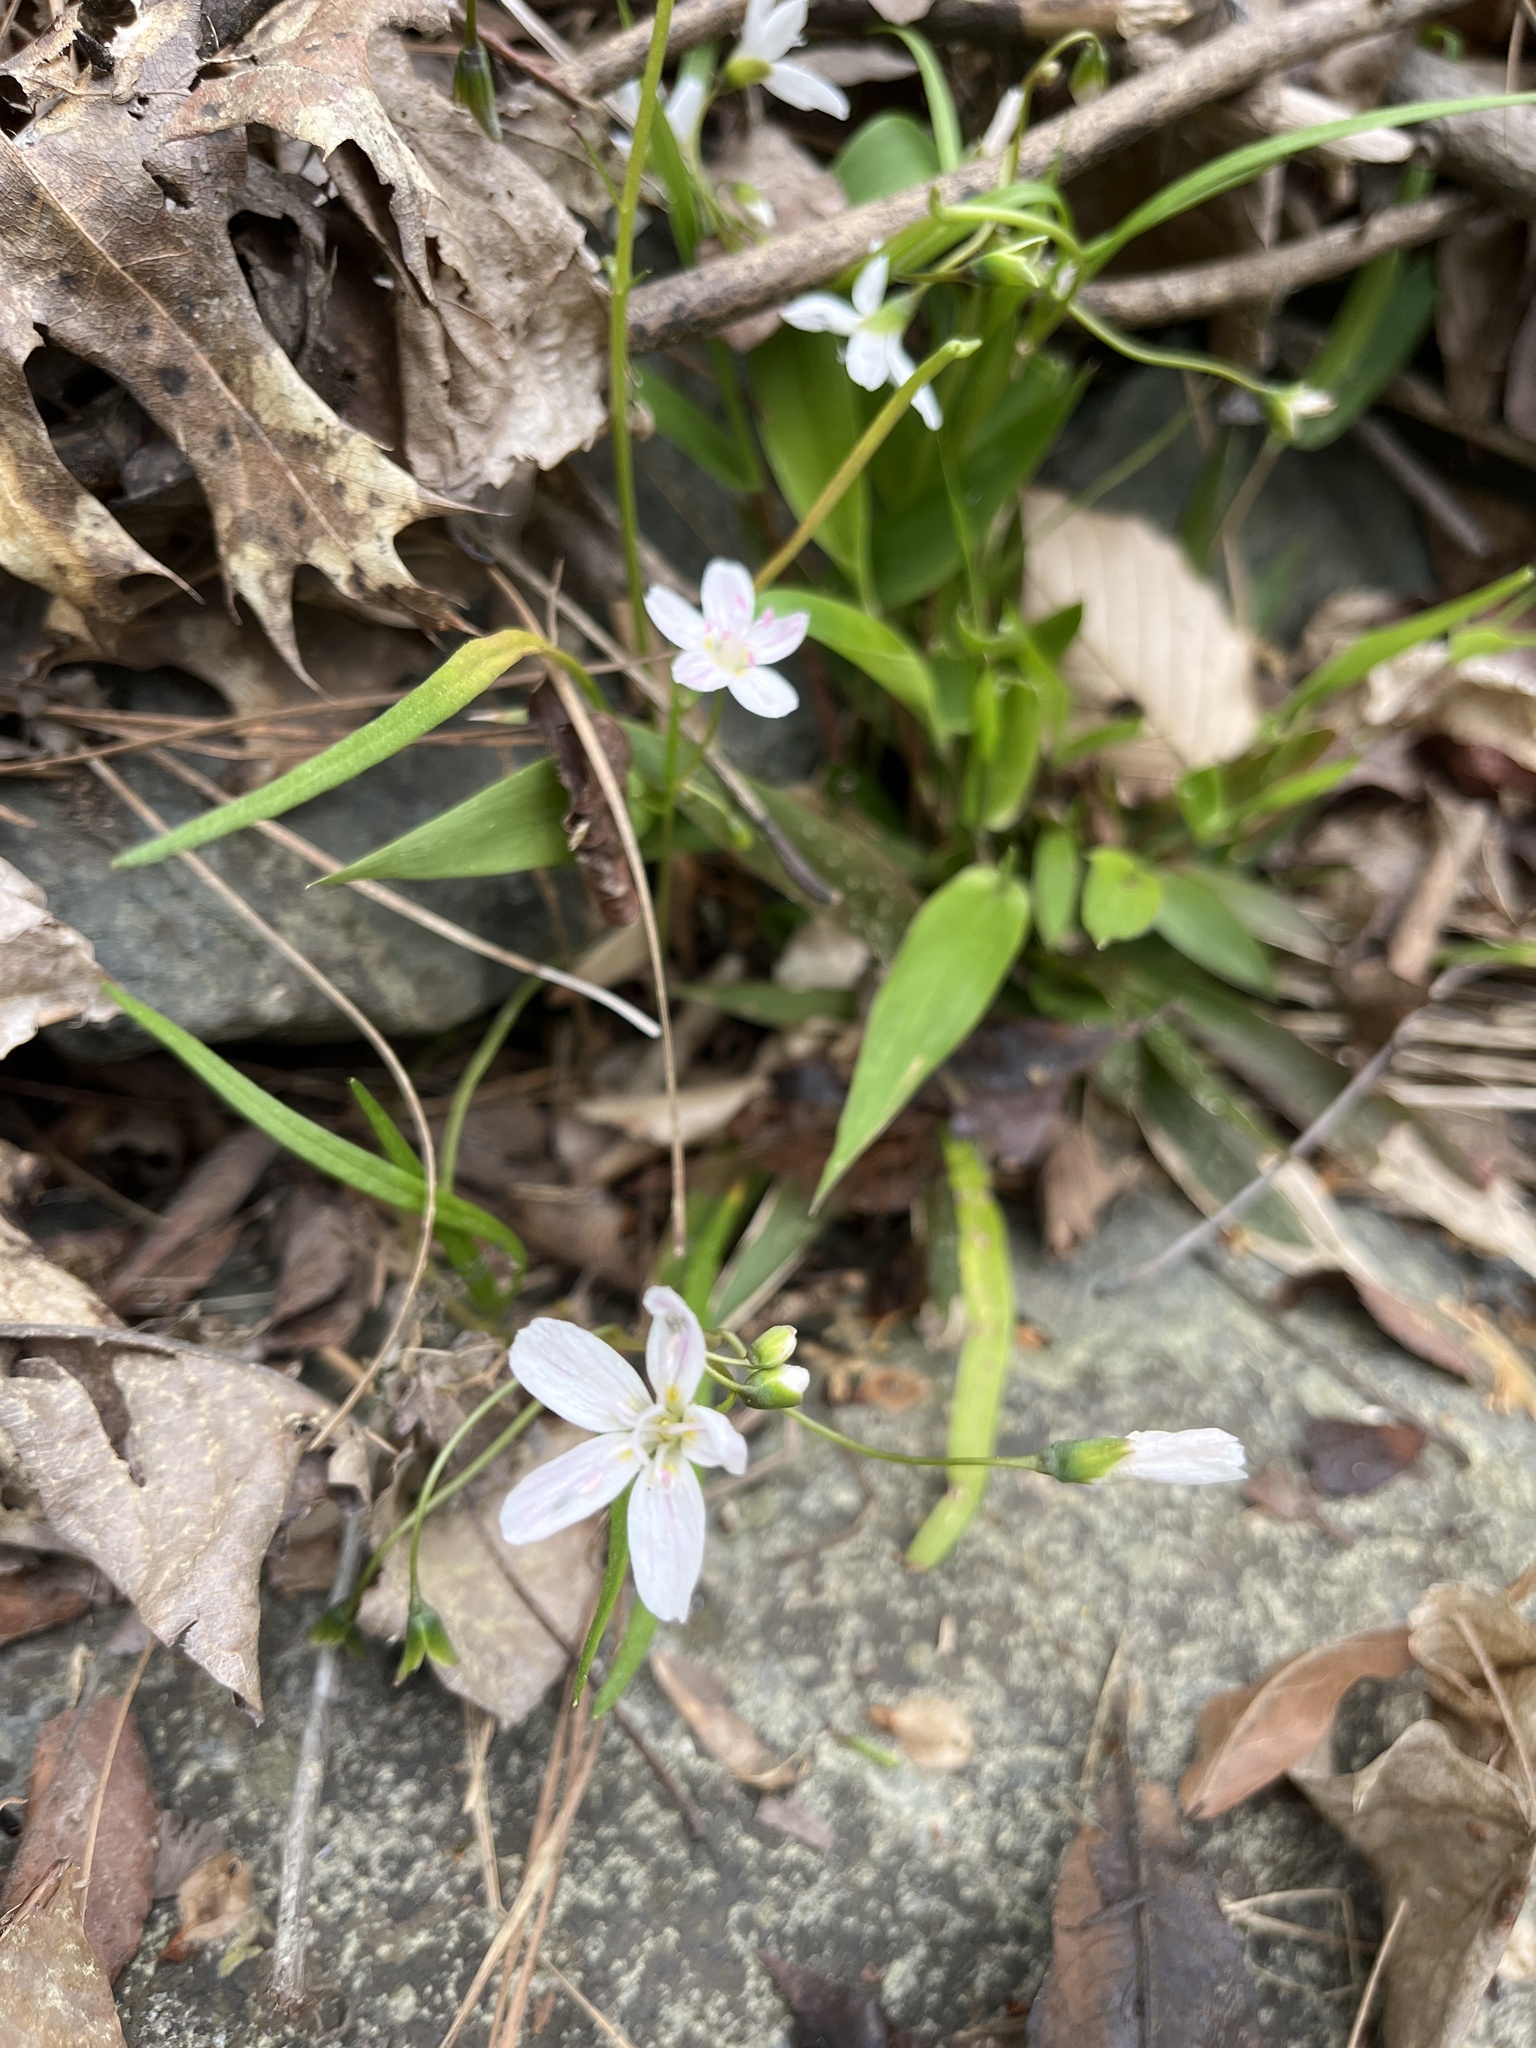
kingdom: Plantae
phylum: Tracheophyta
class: Magnoliopsida
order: Caryophyllales
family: Montiaceae
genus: Claytonia
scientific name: Claytonia virginica
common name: Virginia springbeauty
